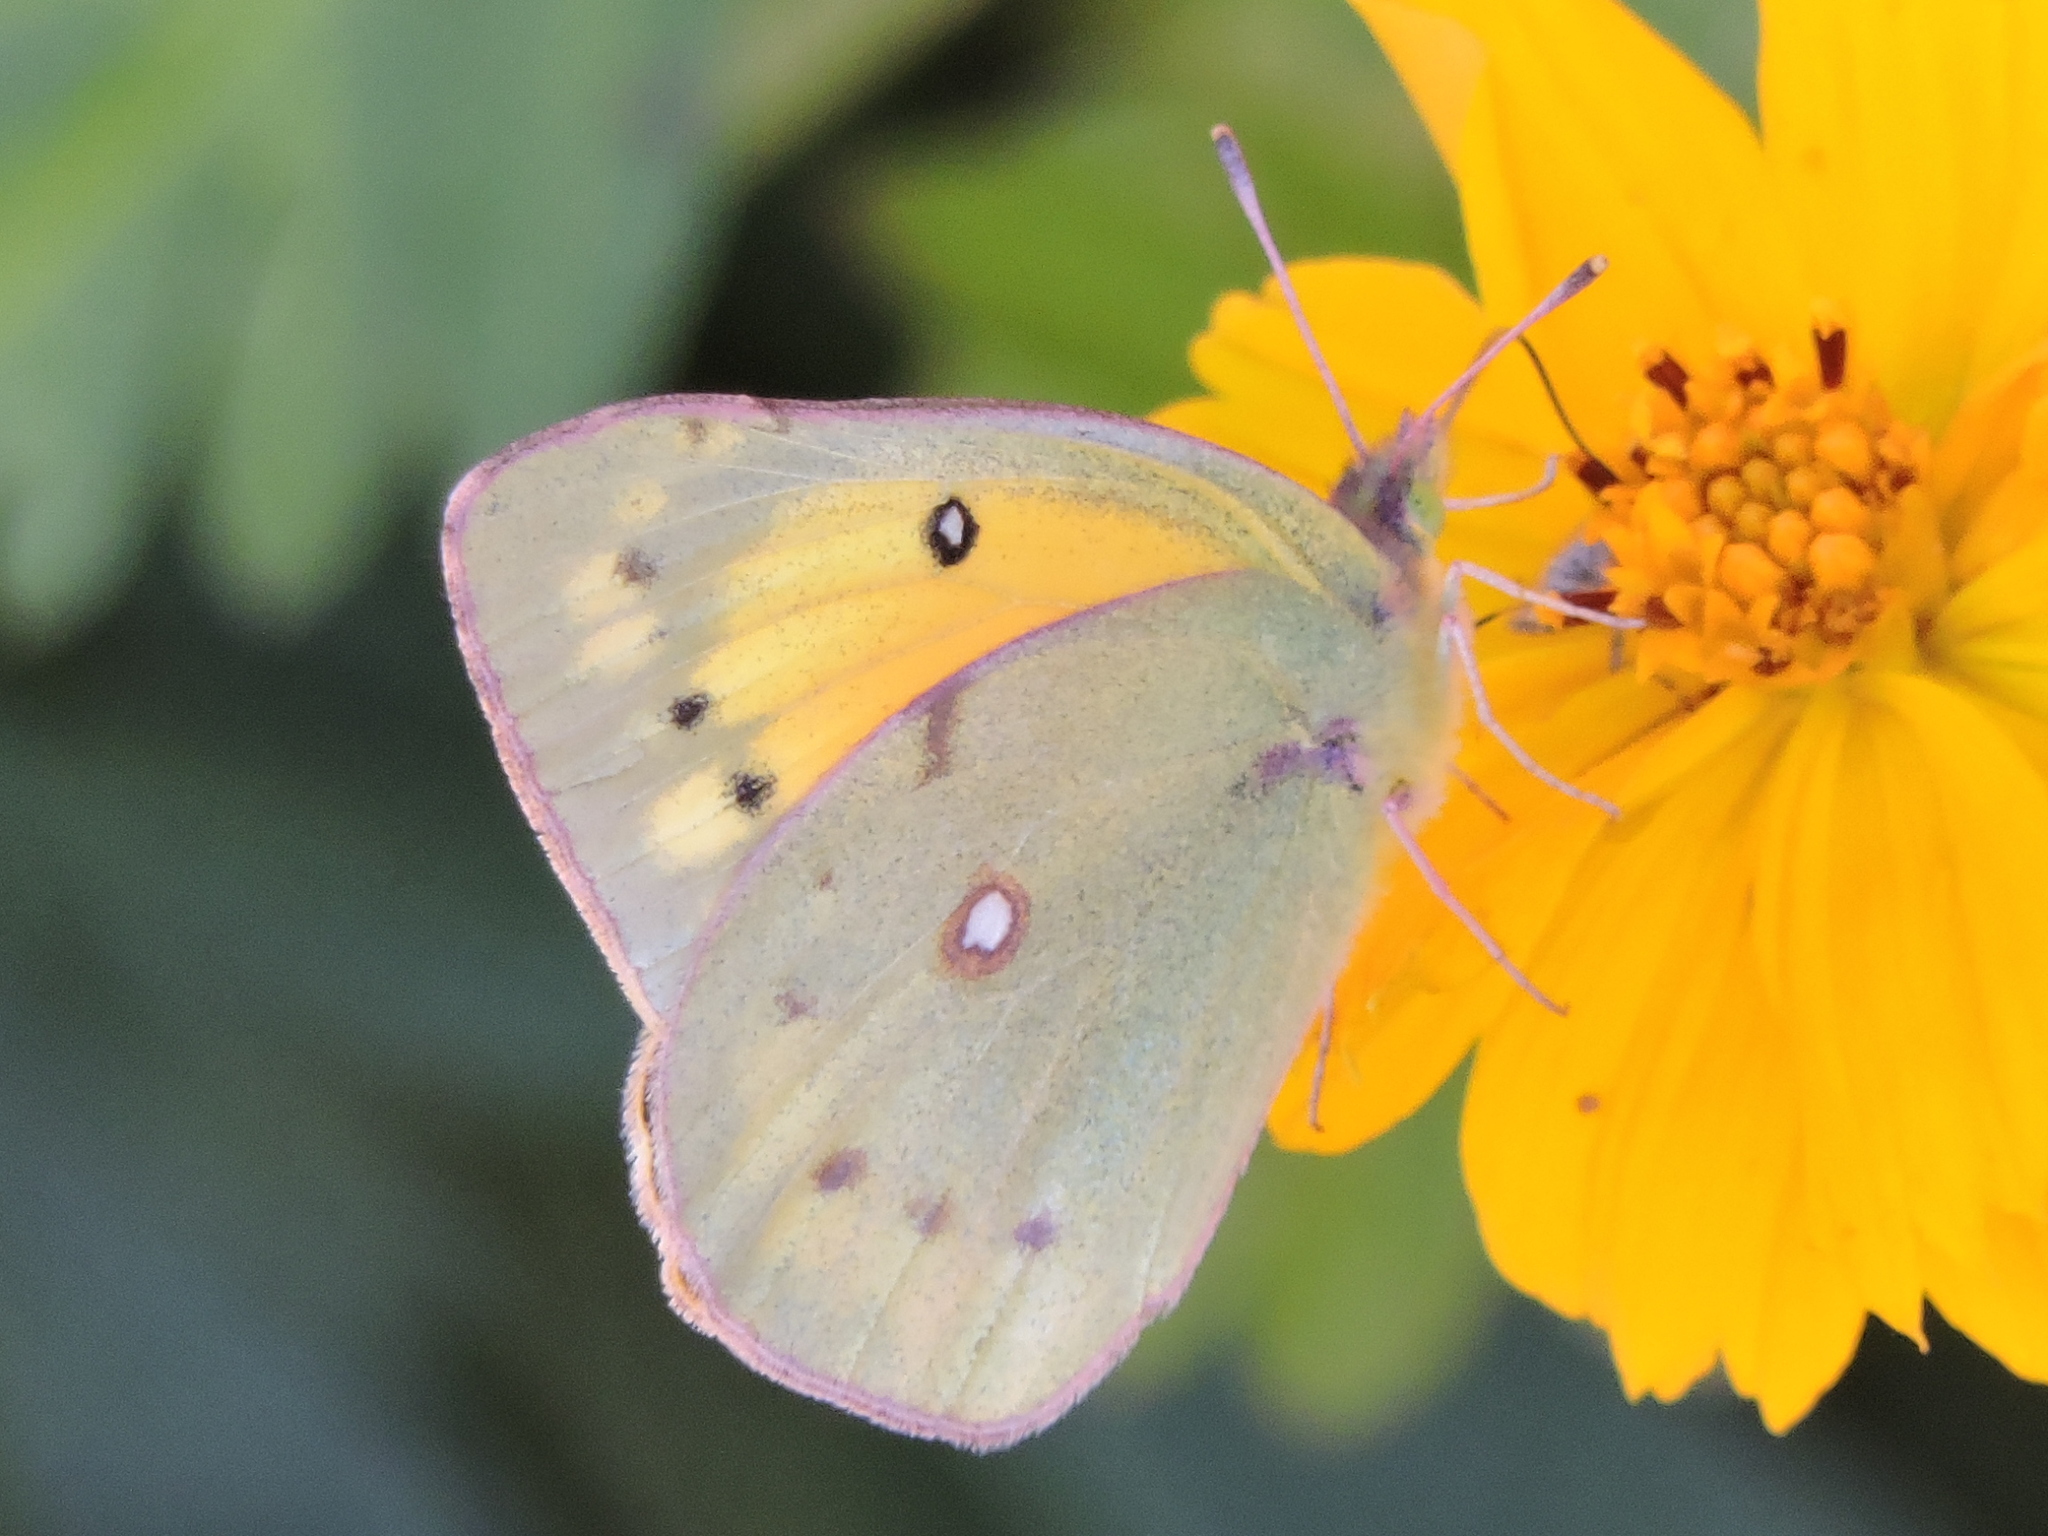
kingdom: Animalia
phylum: Arthropoda
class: Insecta
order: Lepidoptera
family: Pieridae
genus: Colias
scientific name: Colias eurytheme
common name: Alfalfa butterfly
